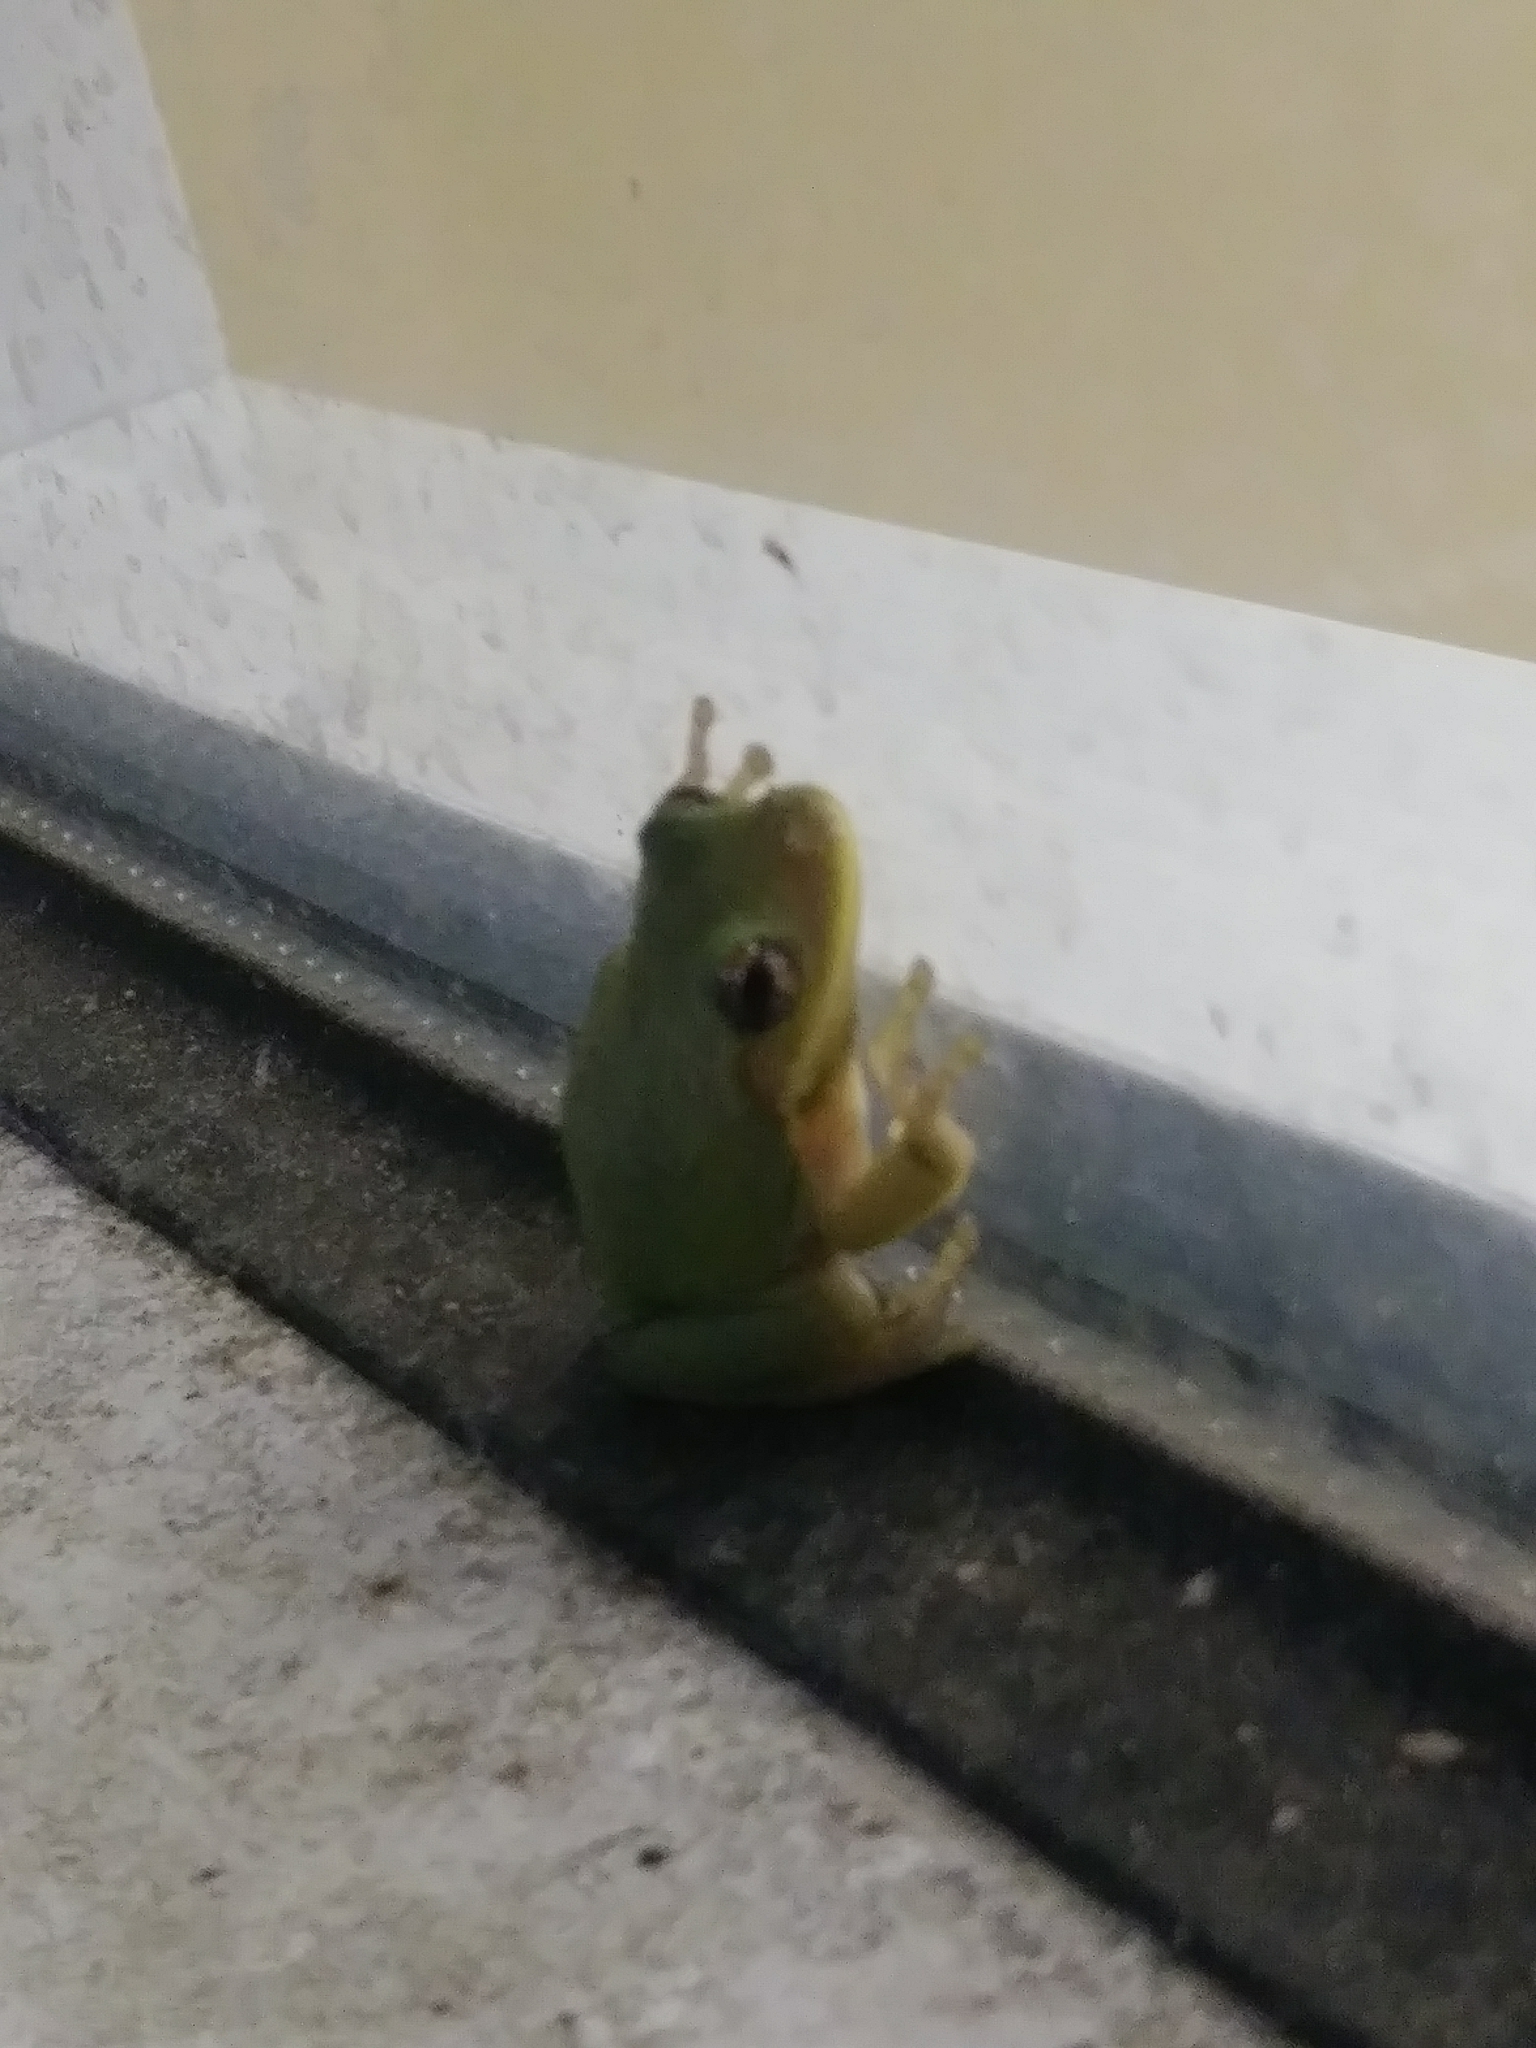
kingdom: Animalia
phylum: Chordata
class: Amphibia
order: Anura
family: Hylidae
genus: Dryophytes
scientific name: Dryophytes squirellus
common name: Squirrel treefrog
